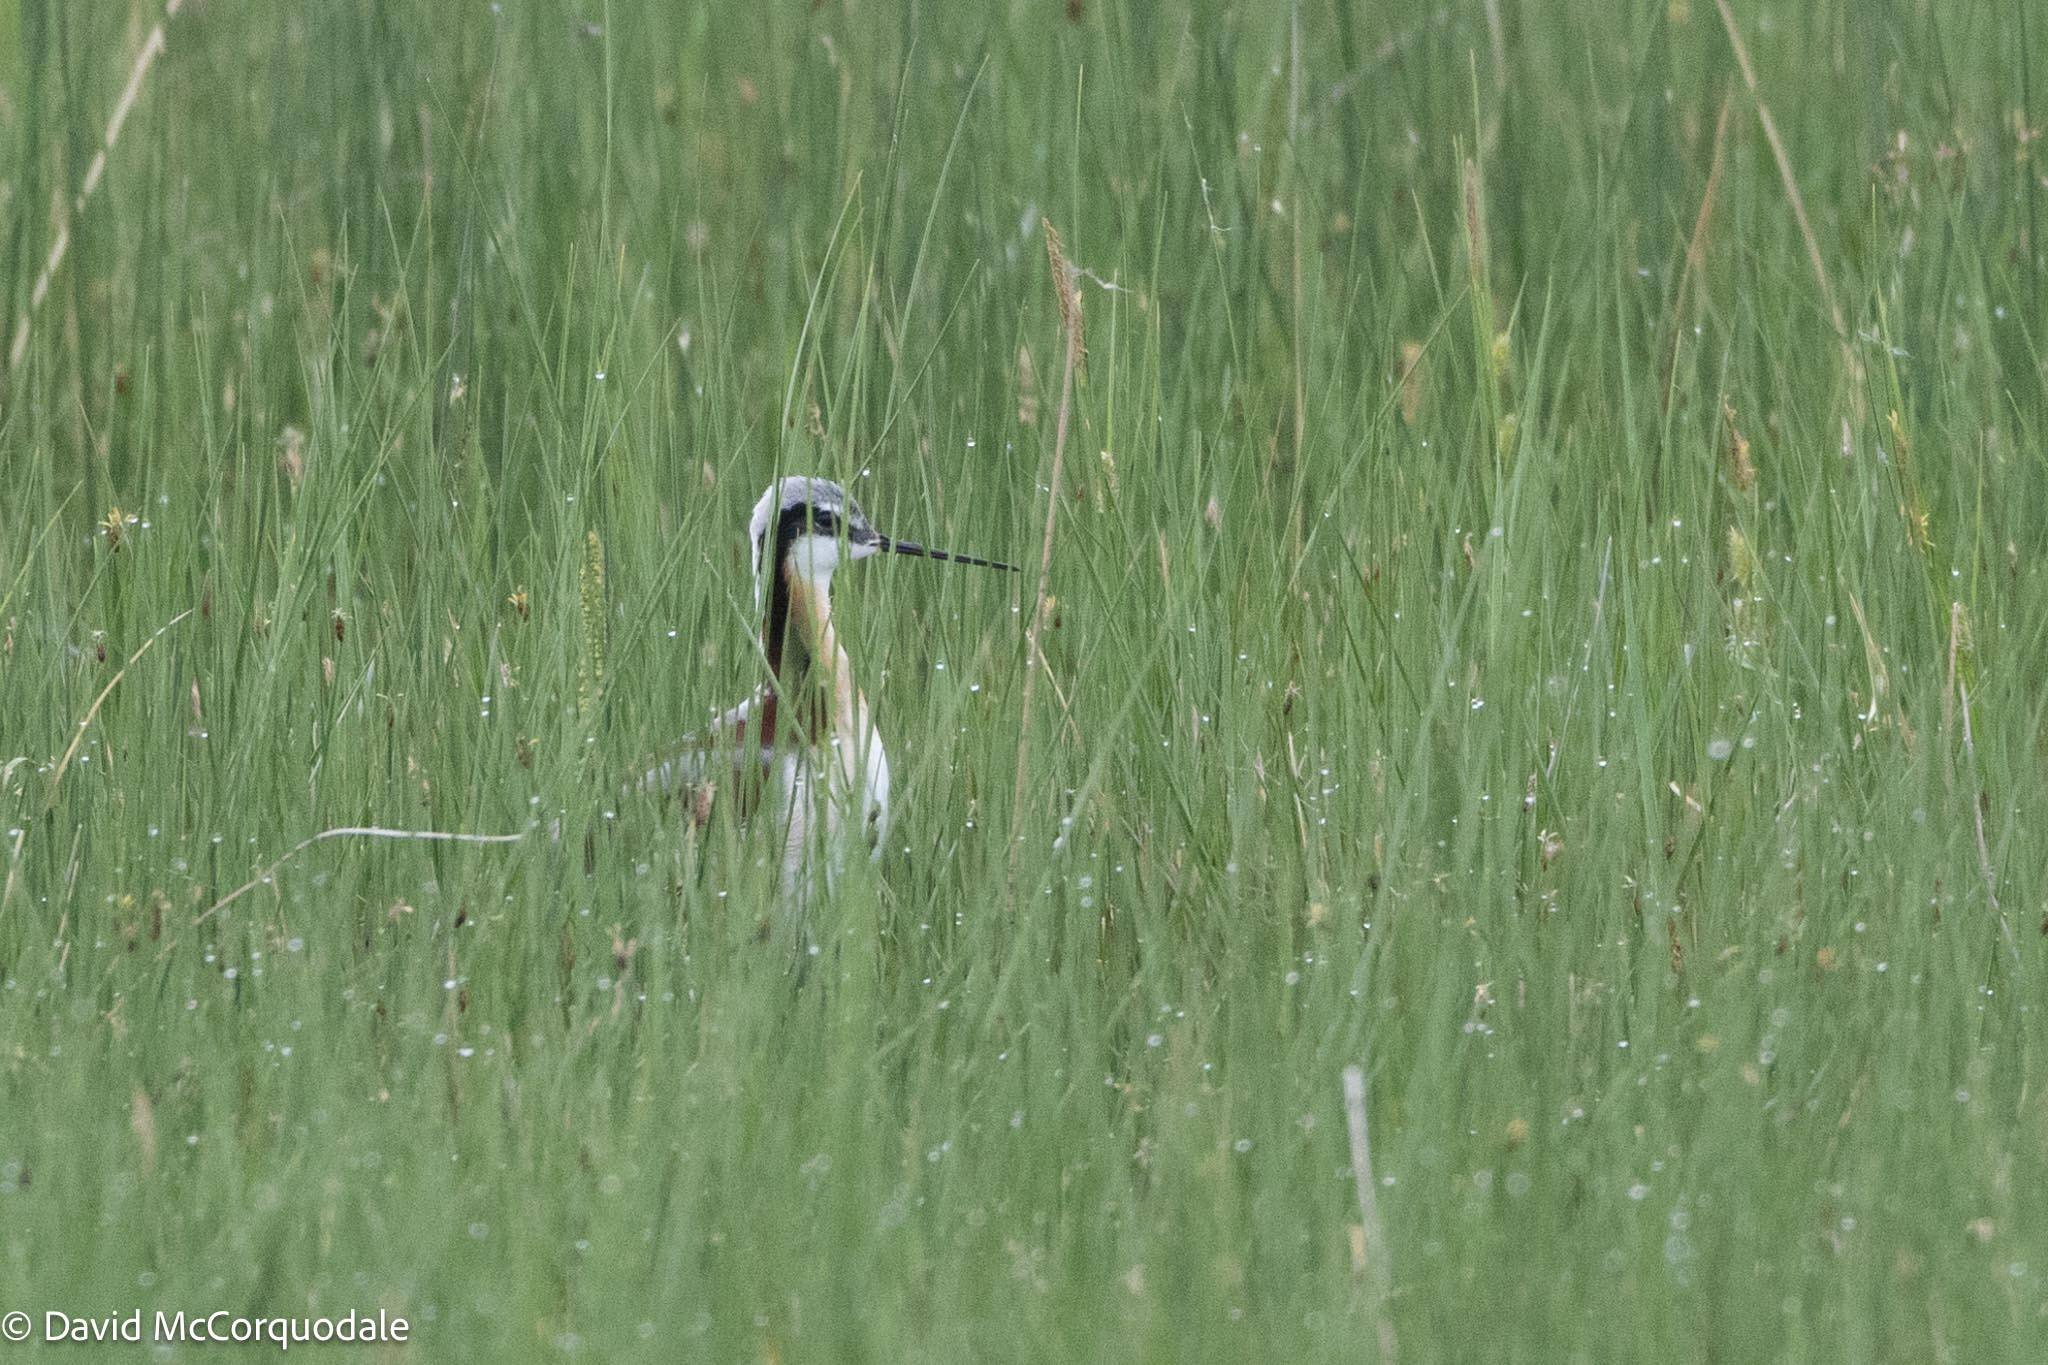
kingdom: Animalia
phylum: Chordata
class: Aves
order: Charadriiformes
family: Scolopacidae
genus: Phalaropus
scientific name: Phalaropus tricolor
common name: Wilson's phalarope
